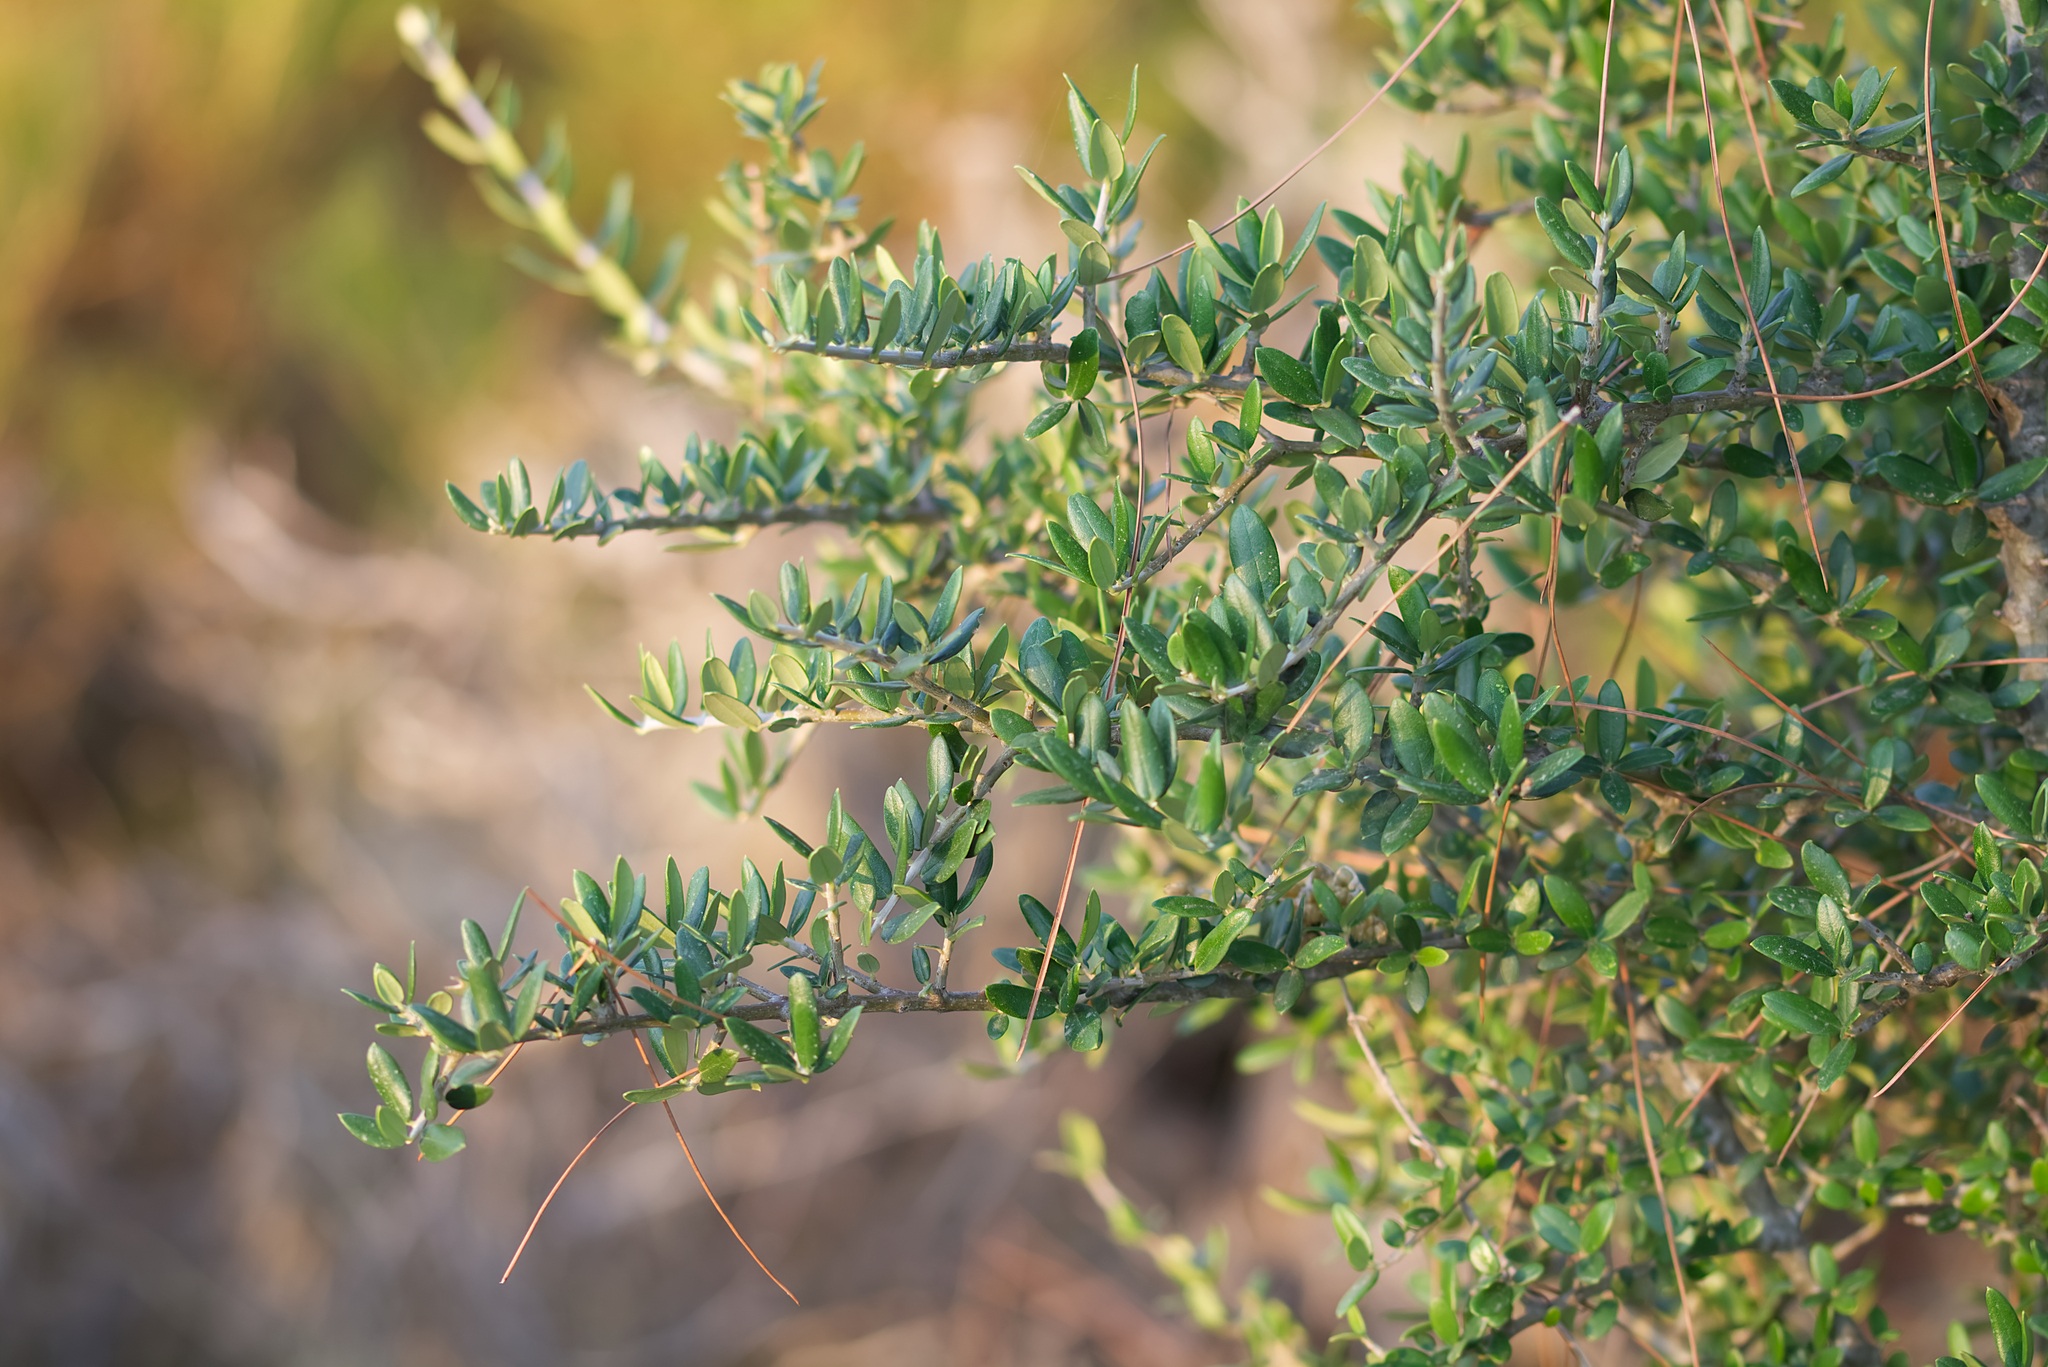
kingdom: Plantae
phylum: Tracheophyta
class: Magnoliopsida
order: Lamiales
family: Oleaceae
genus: Olea
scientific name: Olea europaea
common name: Olive
